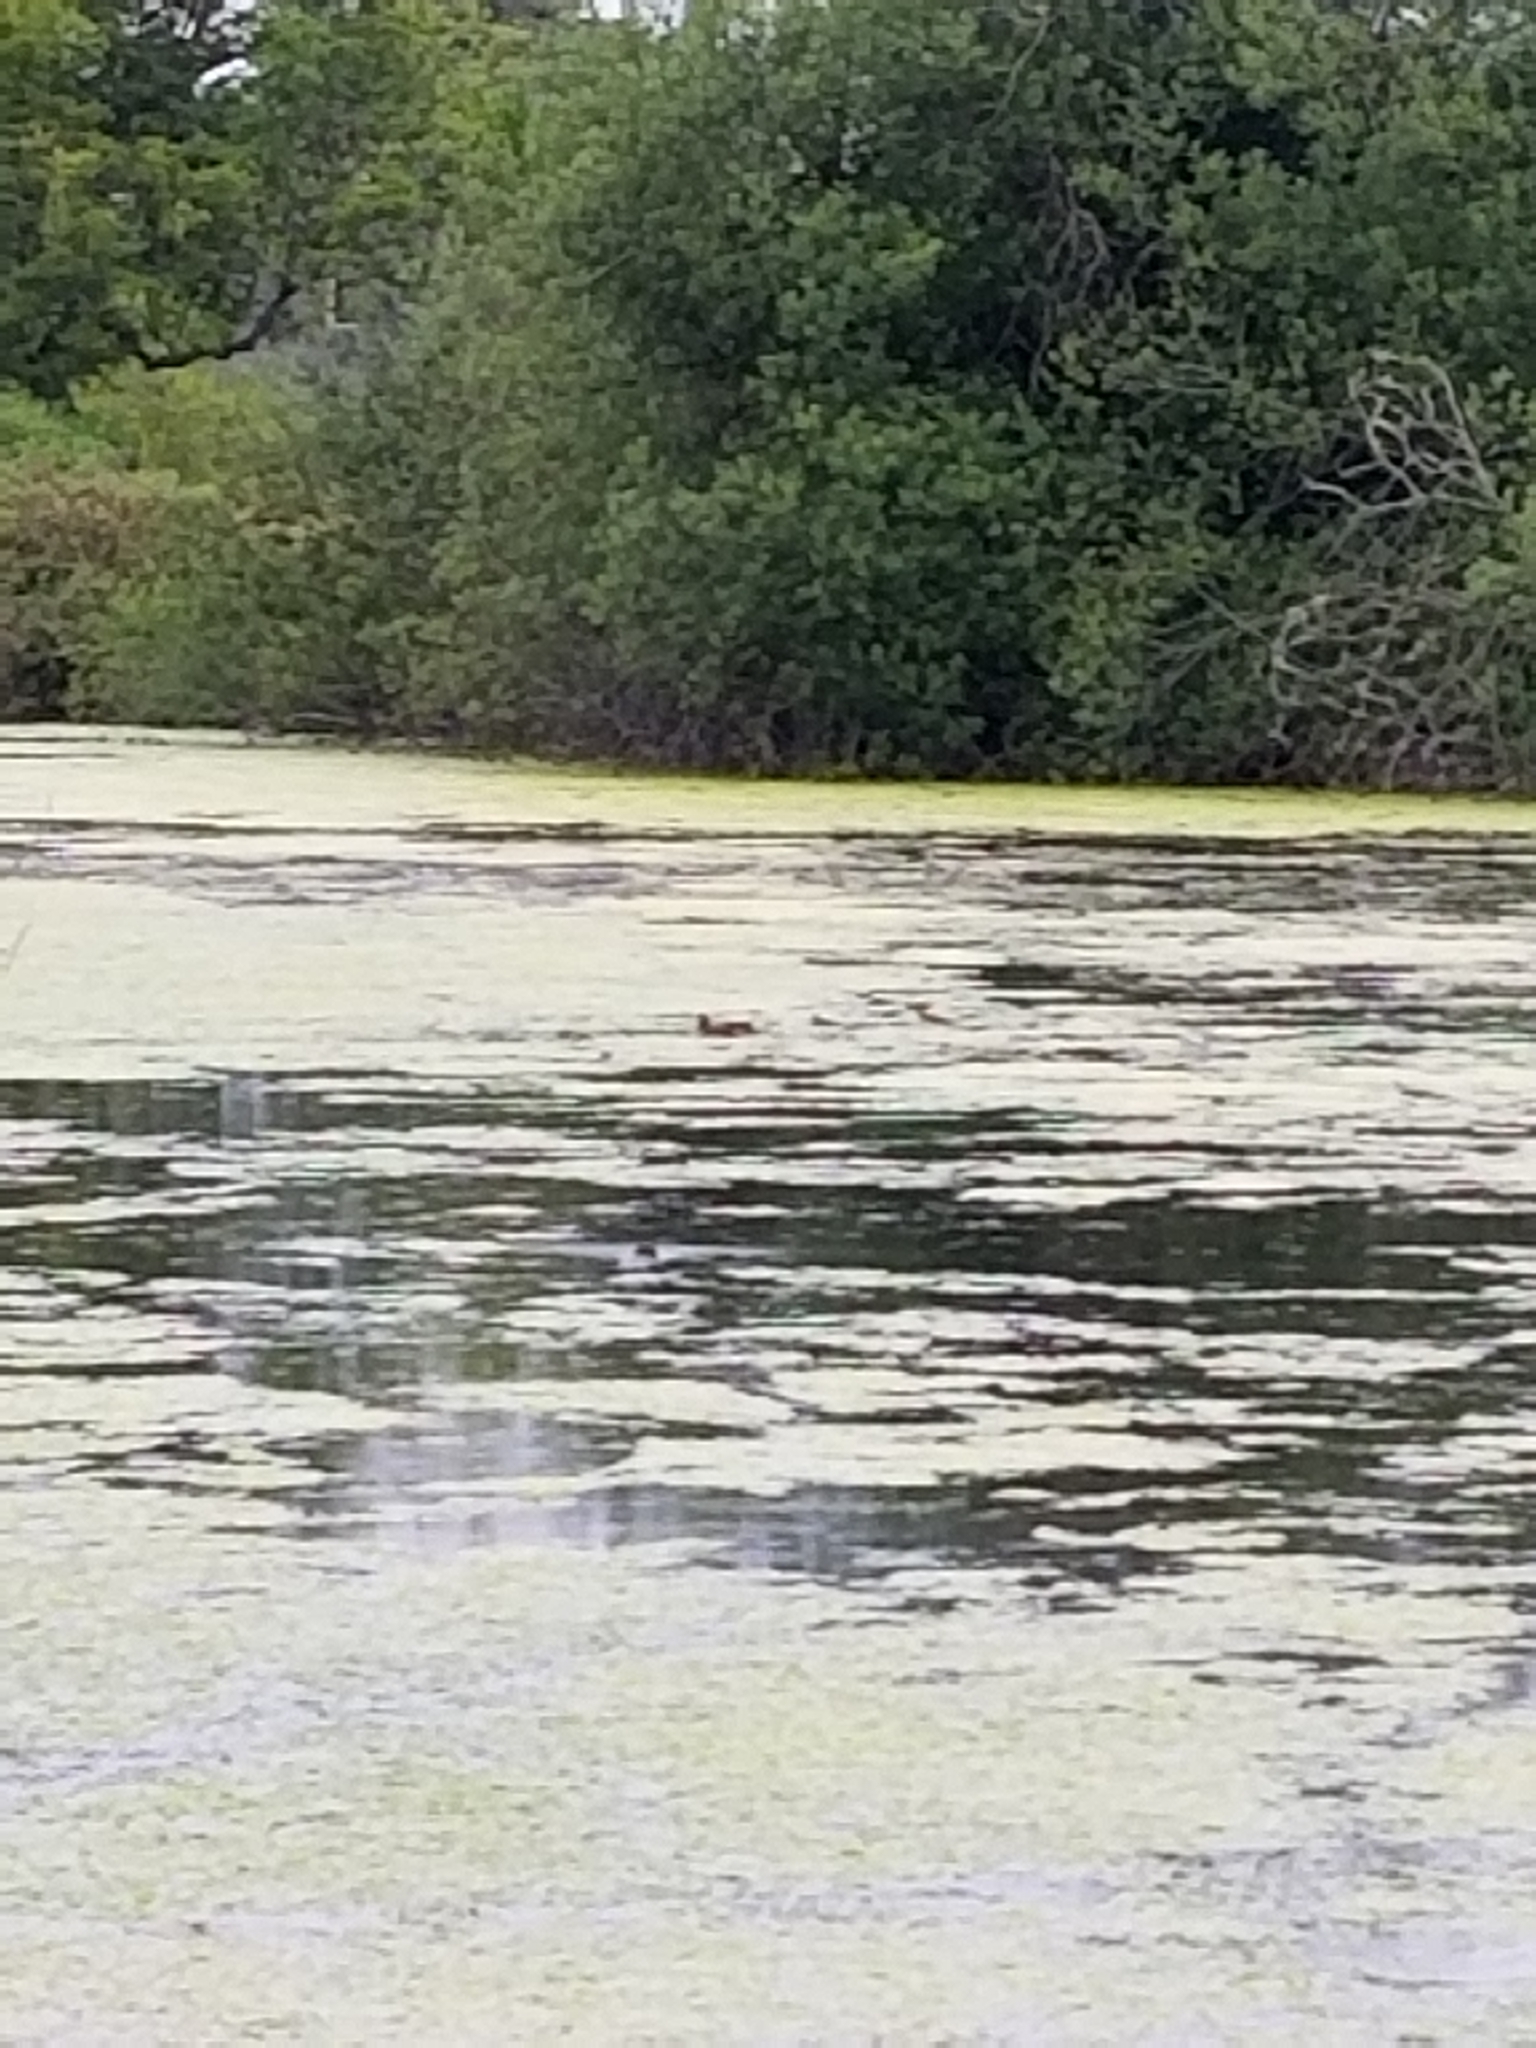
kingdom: Animalia
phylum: Chordata
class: Mammalia
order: Rodentia
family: Castoridae
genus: Castor
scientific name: Castor canadensis
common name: American beaver
